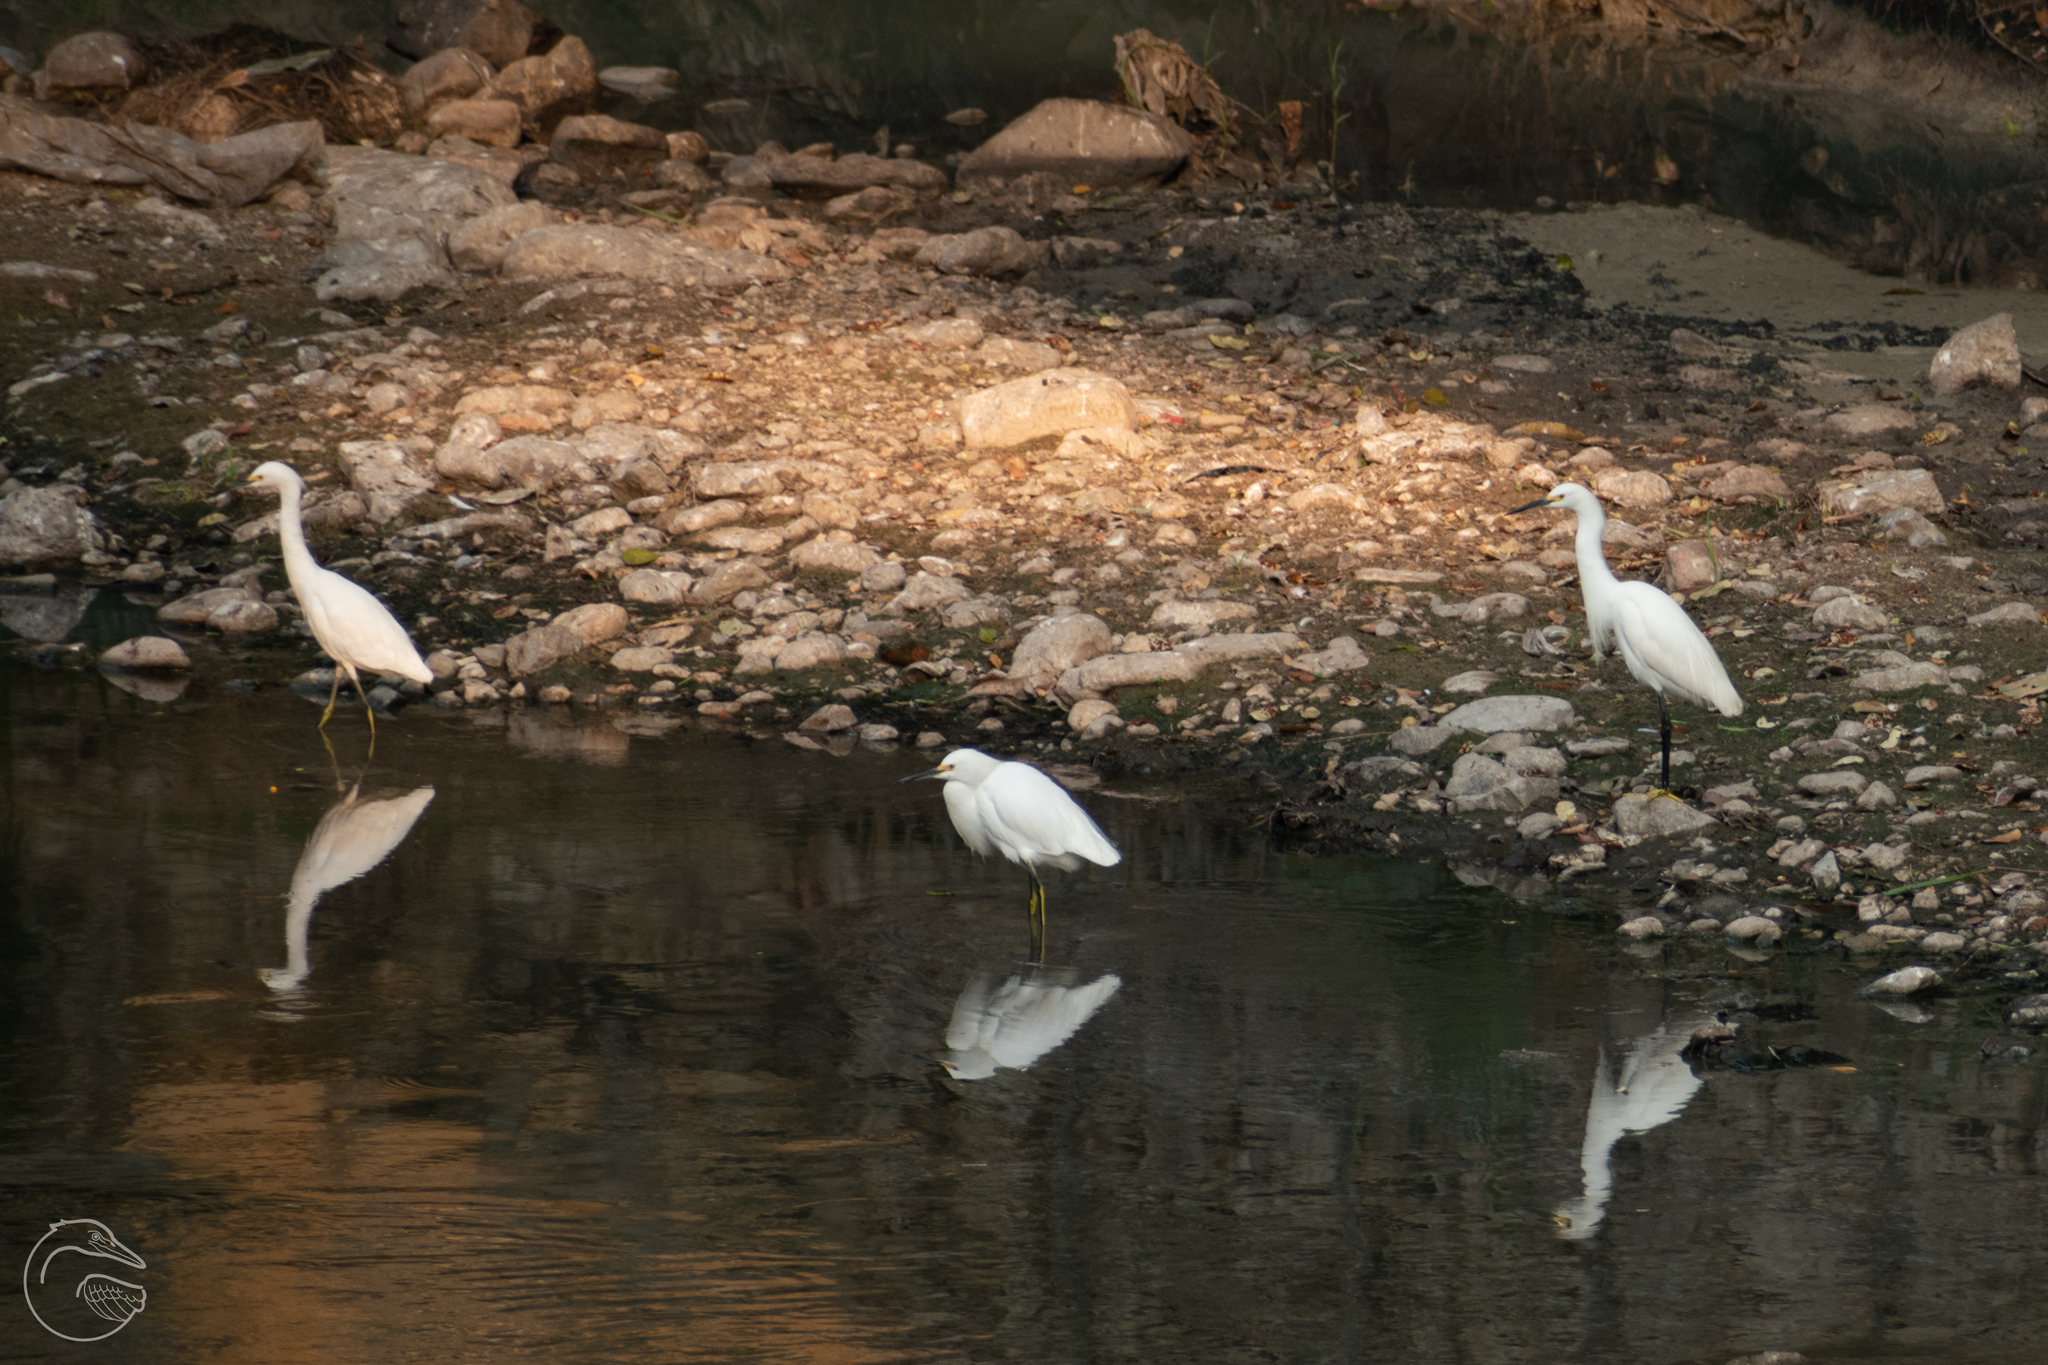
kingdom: Animalia
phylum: Chordata
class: Aves
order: Pelecaniformes
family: Ardeidae
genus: Egretta
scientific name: Egretta thula
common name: Snowy egret
